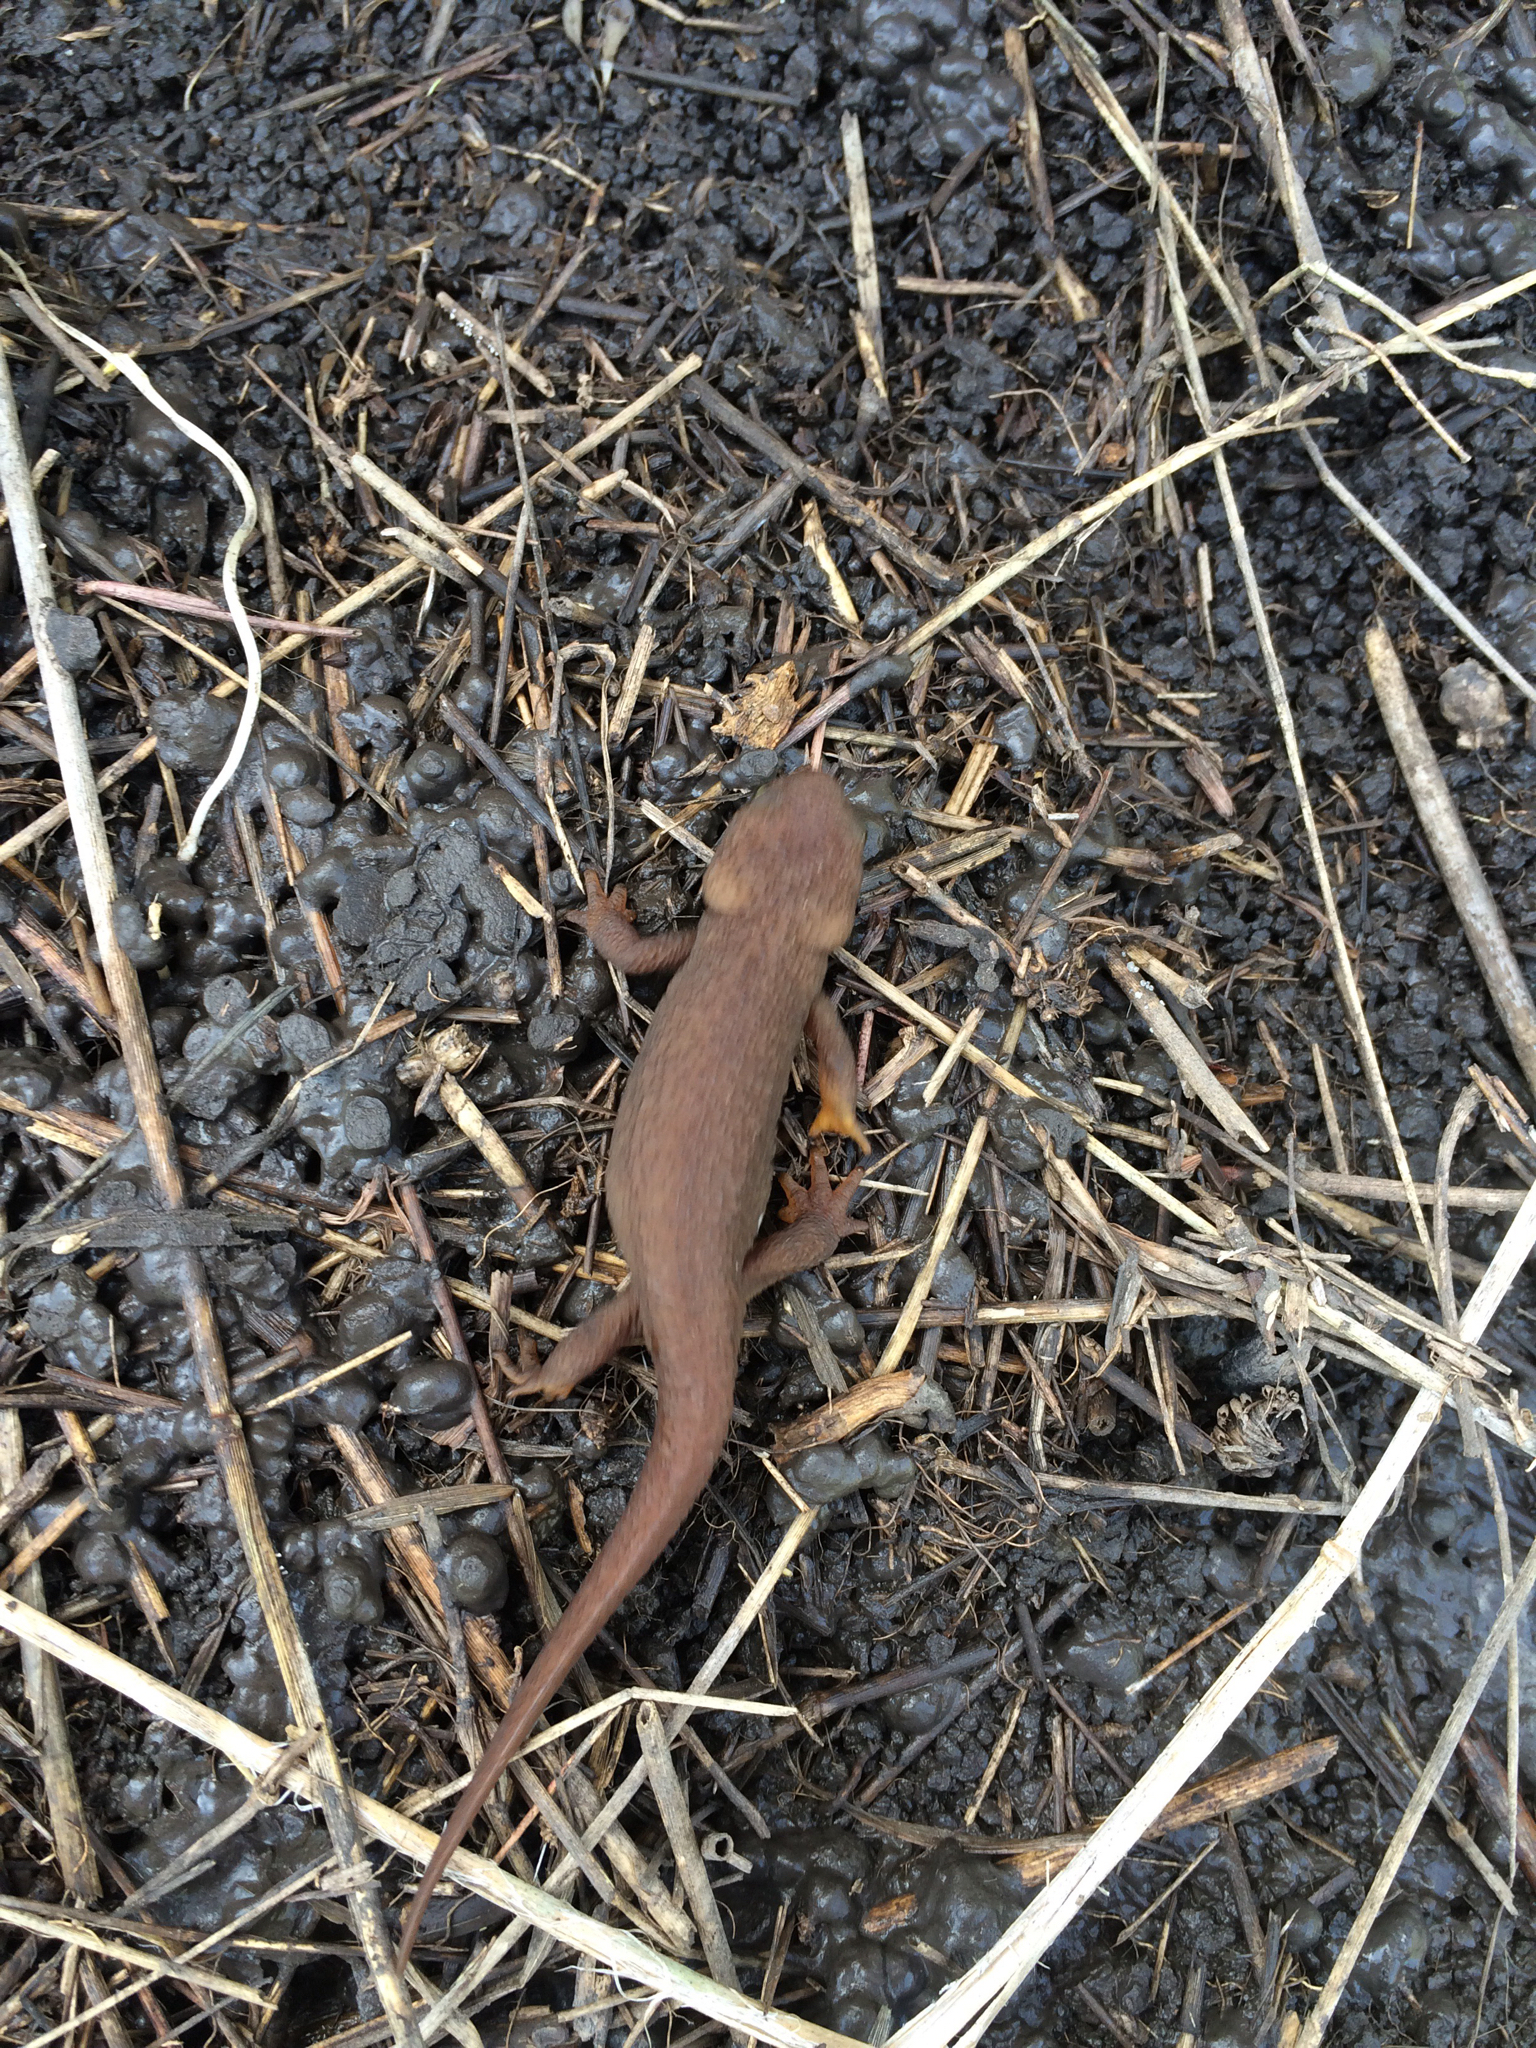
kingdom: Animalia
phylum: Chordata
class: Amphibia
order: Caudata
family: Salamandridae
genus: Taricha
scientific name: Taricha granulosa
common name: Roughskin newt
